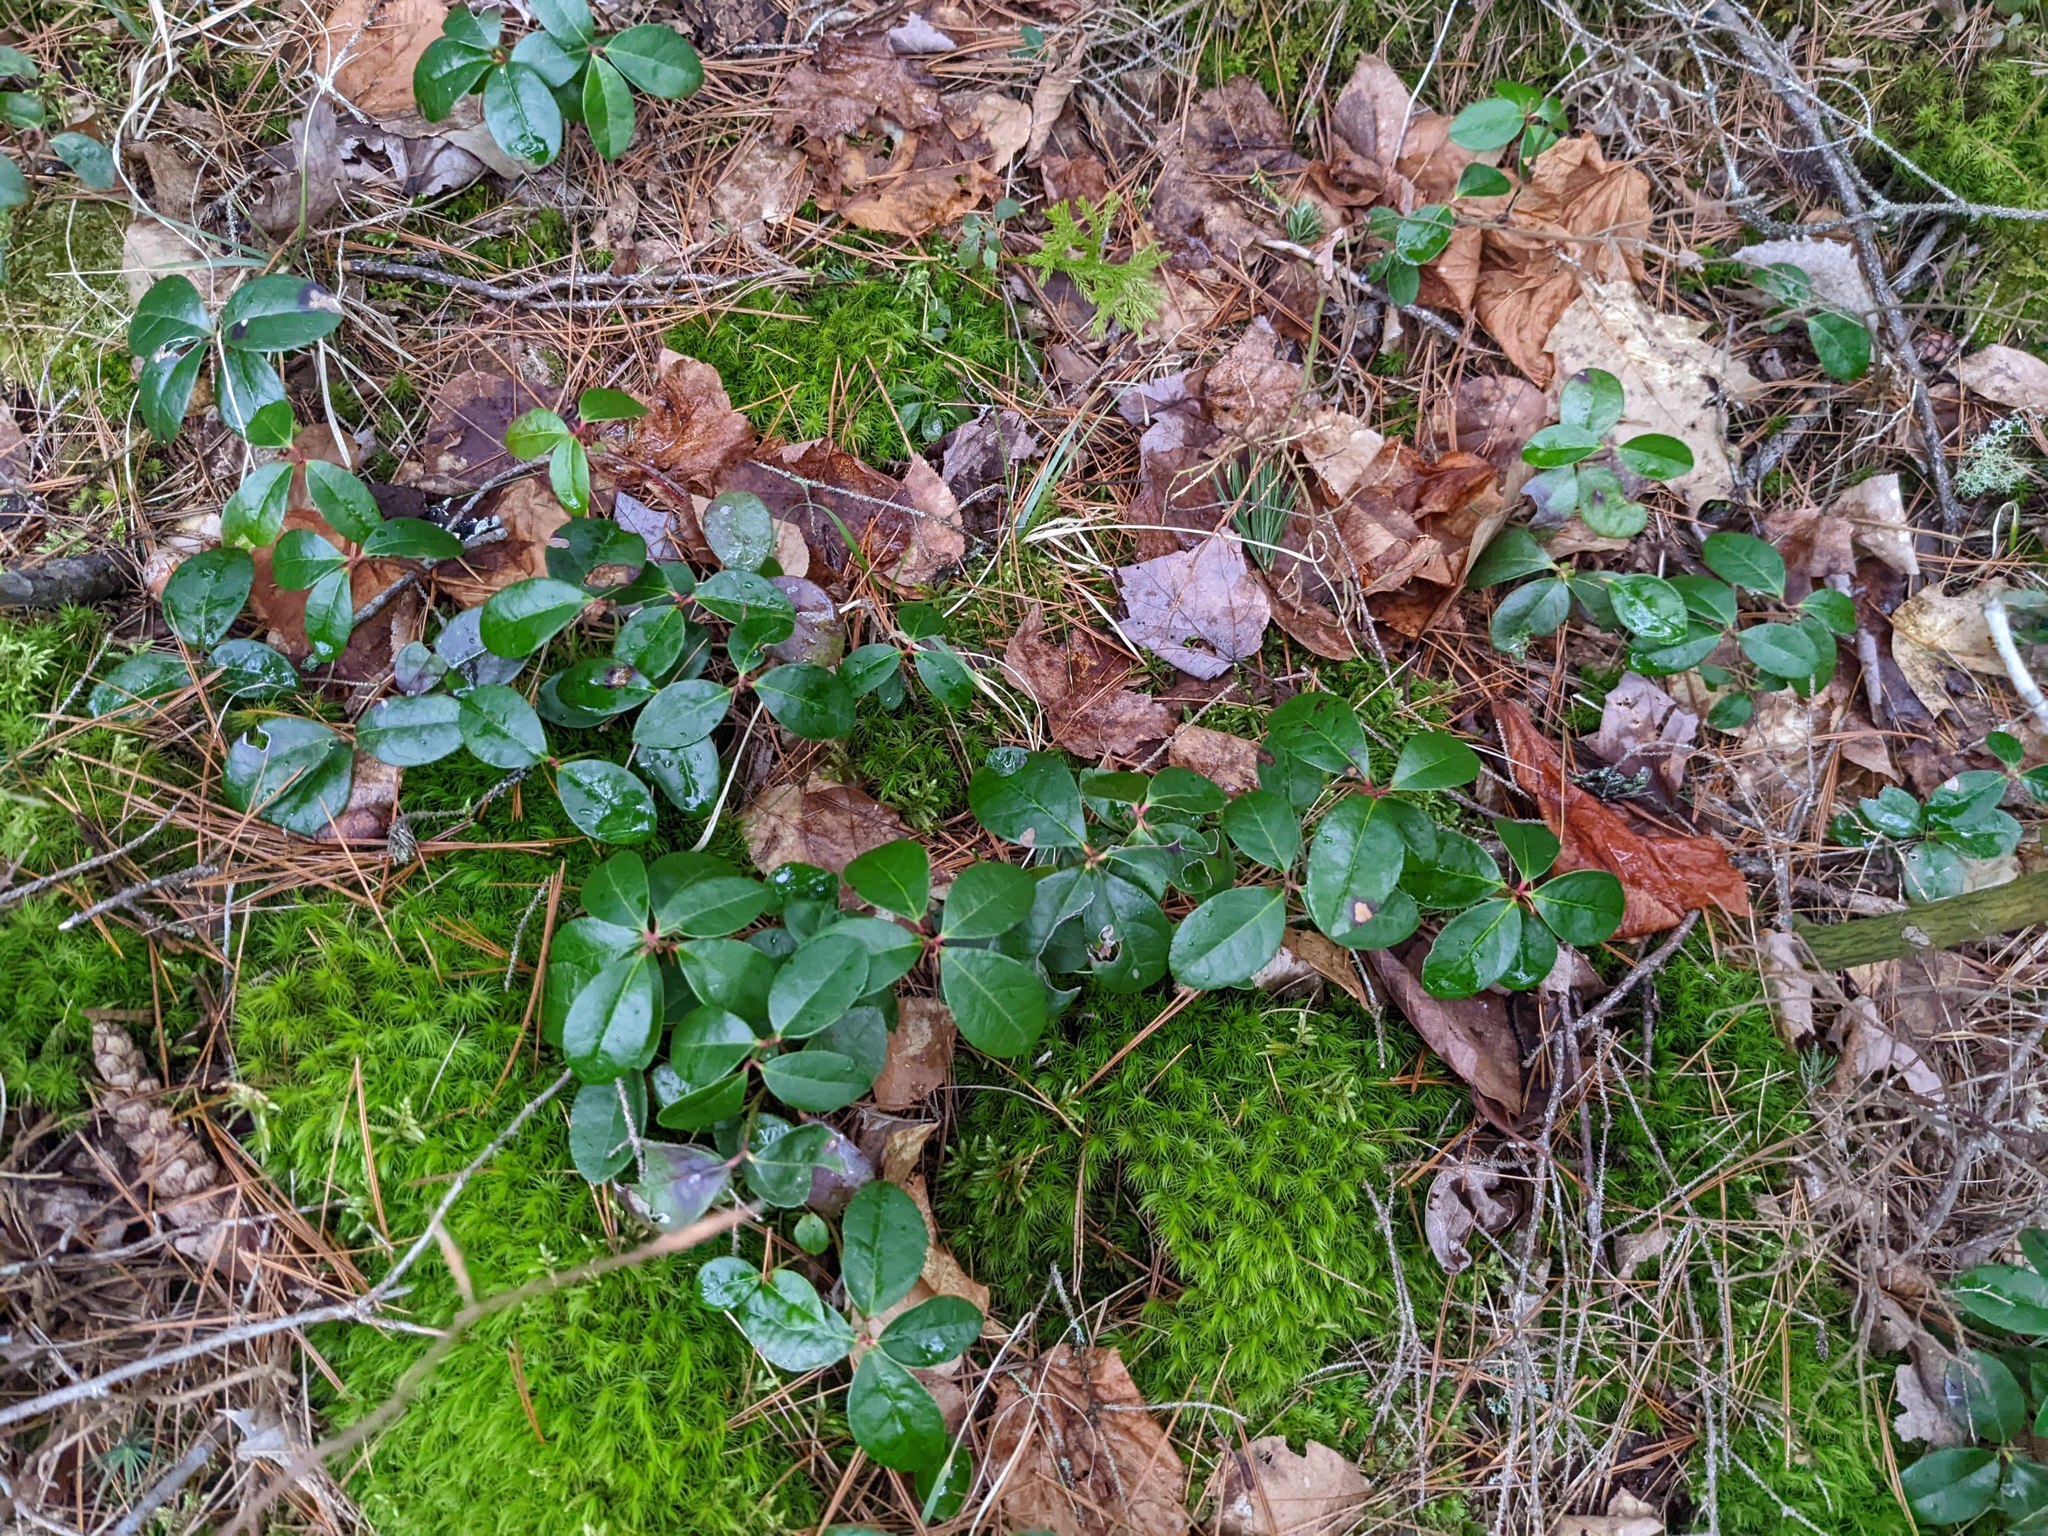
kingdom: Plantae
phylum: Tracheophyta
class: Magnoliopsida
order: Ericales
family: Ericaceae
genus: Gaultheria
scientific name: Gaultheria procumbens
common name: Checkerberry
